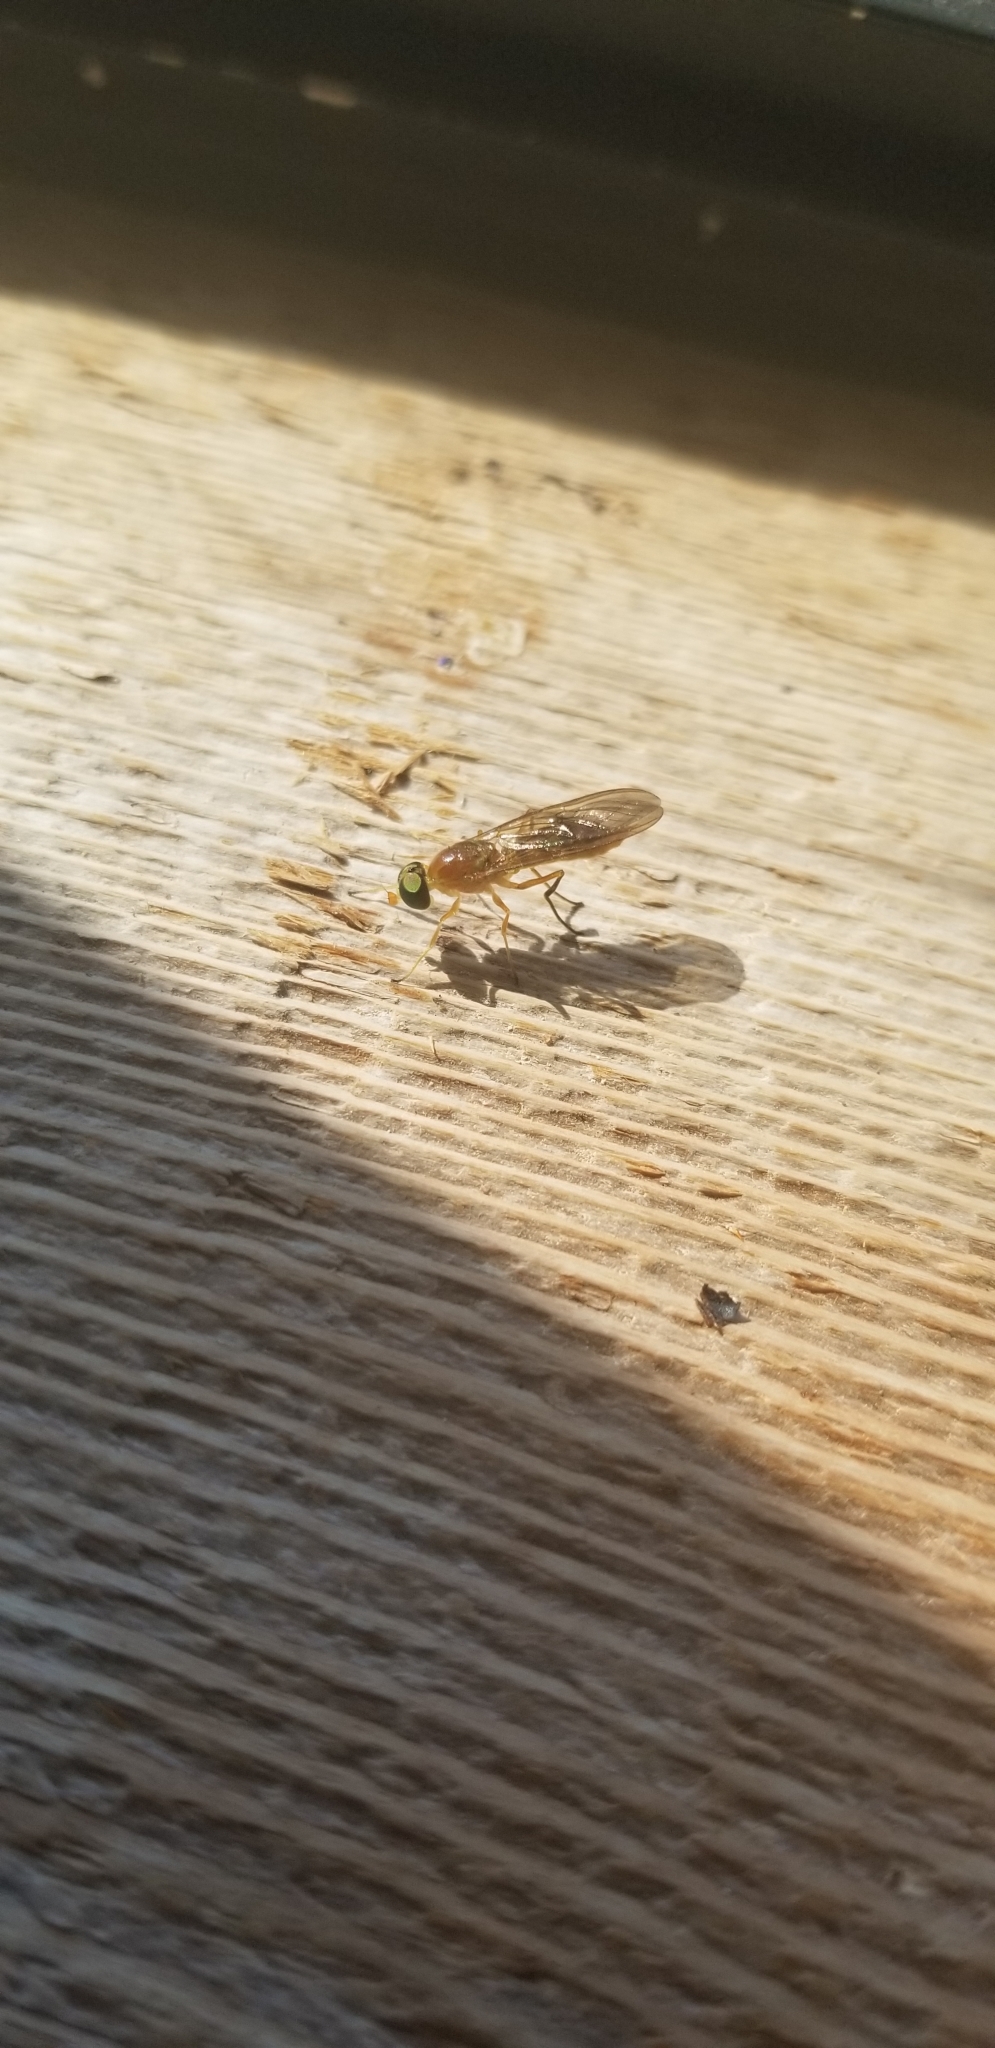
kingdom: Animalia
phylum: Arthropoda
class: Insecta
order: Diptera
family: Stratiomyidae
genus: Ptecticus
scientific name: Ptecticus trivittatus
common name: Compost fly
